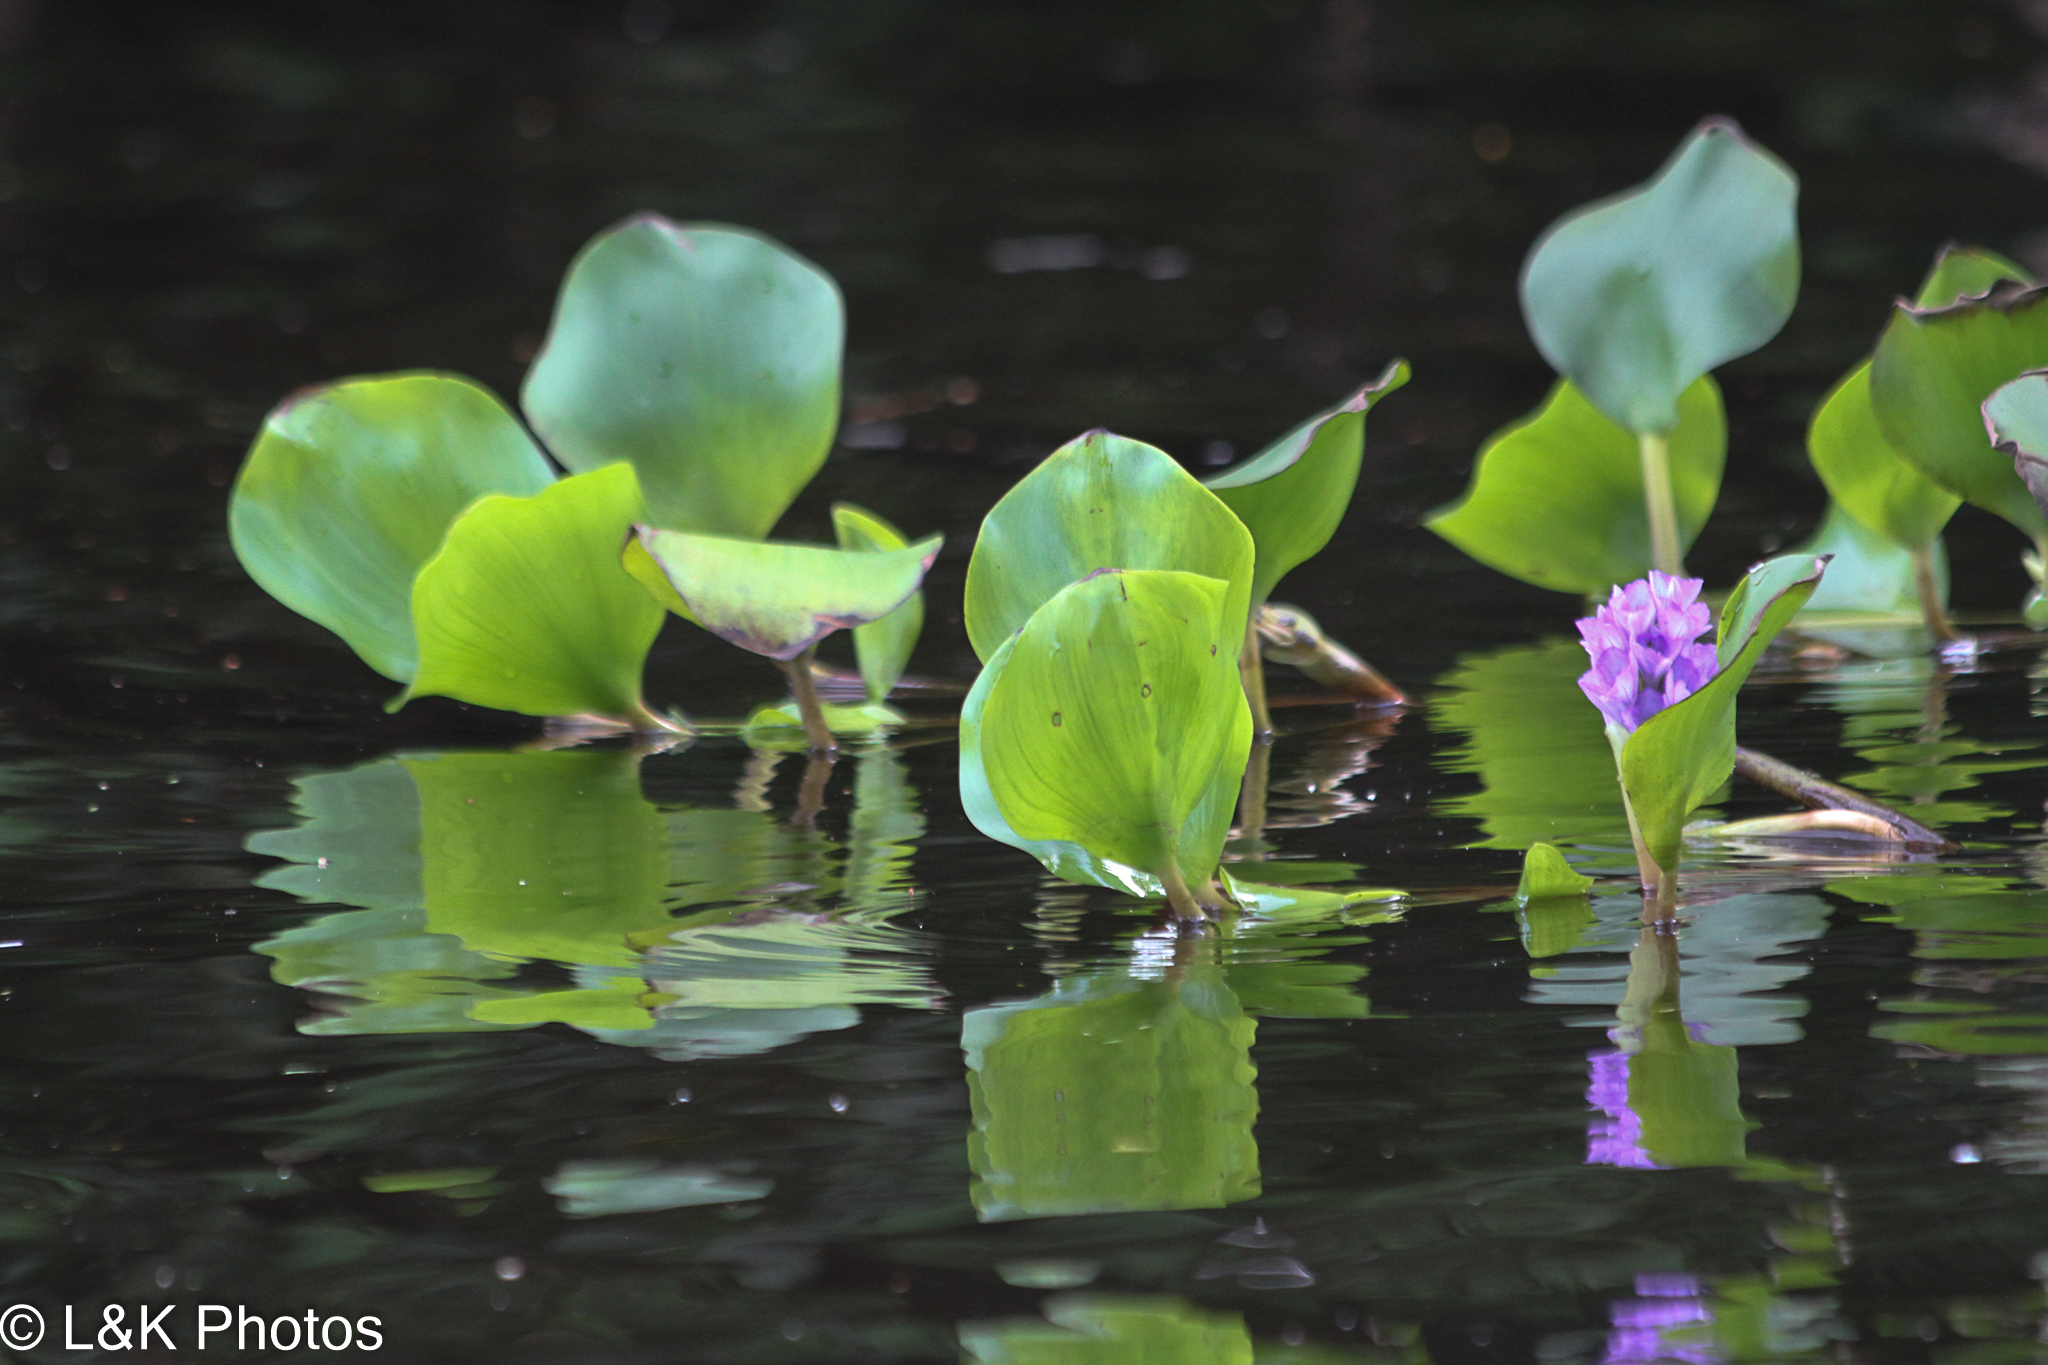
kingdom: Plantae
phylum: Tracheophyta
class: Liliopsida
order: Commelinales
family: Pontederiaceae
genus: Pontederia
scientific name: Pontederia azurea
